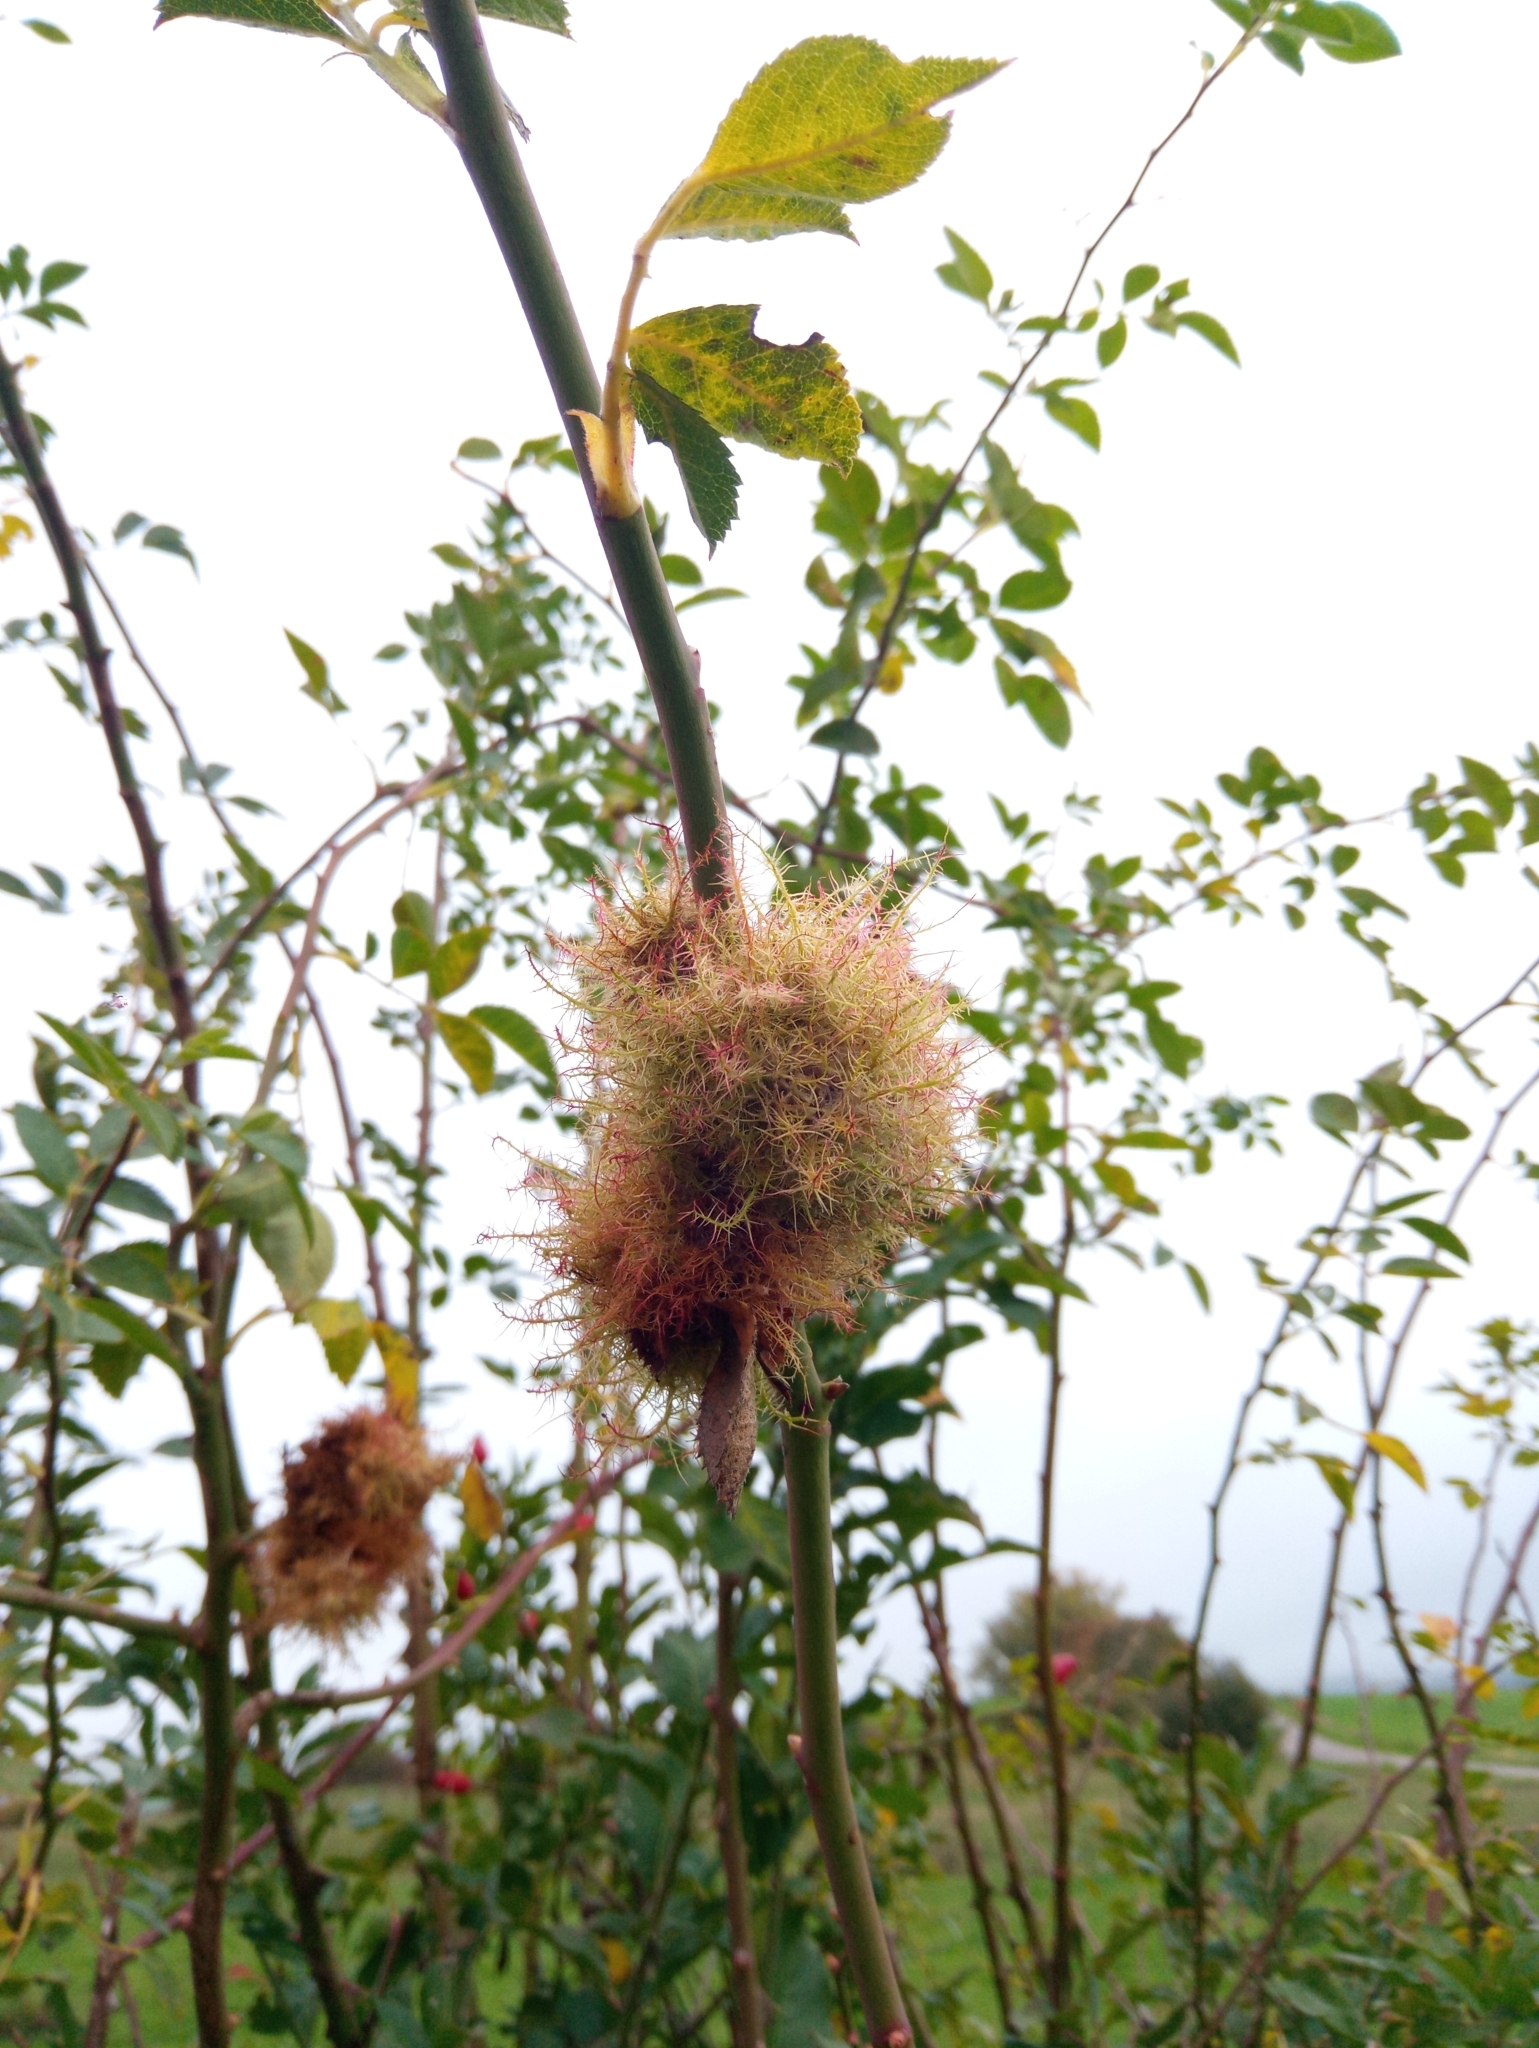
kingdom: Animalia
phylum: Arthropoda
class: Insecta
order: Hymenoptera
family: Cynipidae
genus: Diplolepis
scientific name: Diplolepis rosae
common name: Bedeguar gall
